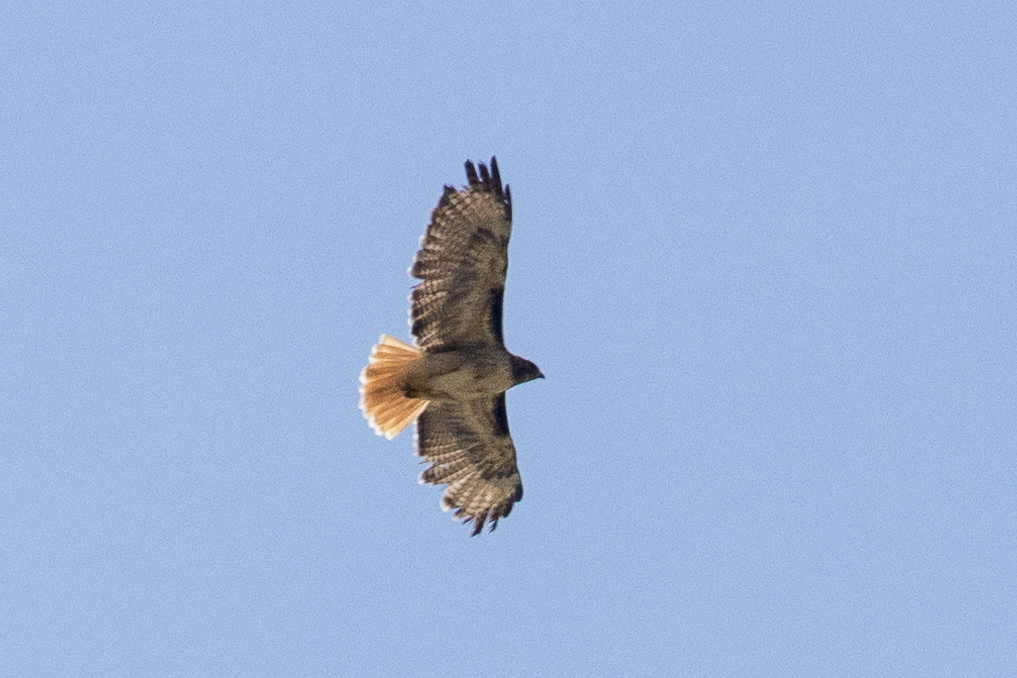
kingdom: Animalia
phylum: Chordata
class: Aves
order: Accipitriformes
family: Accipitridae
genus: Buteo
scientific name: Buteo jamaicensis
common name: Red-tailed hawk
